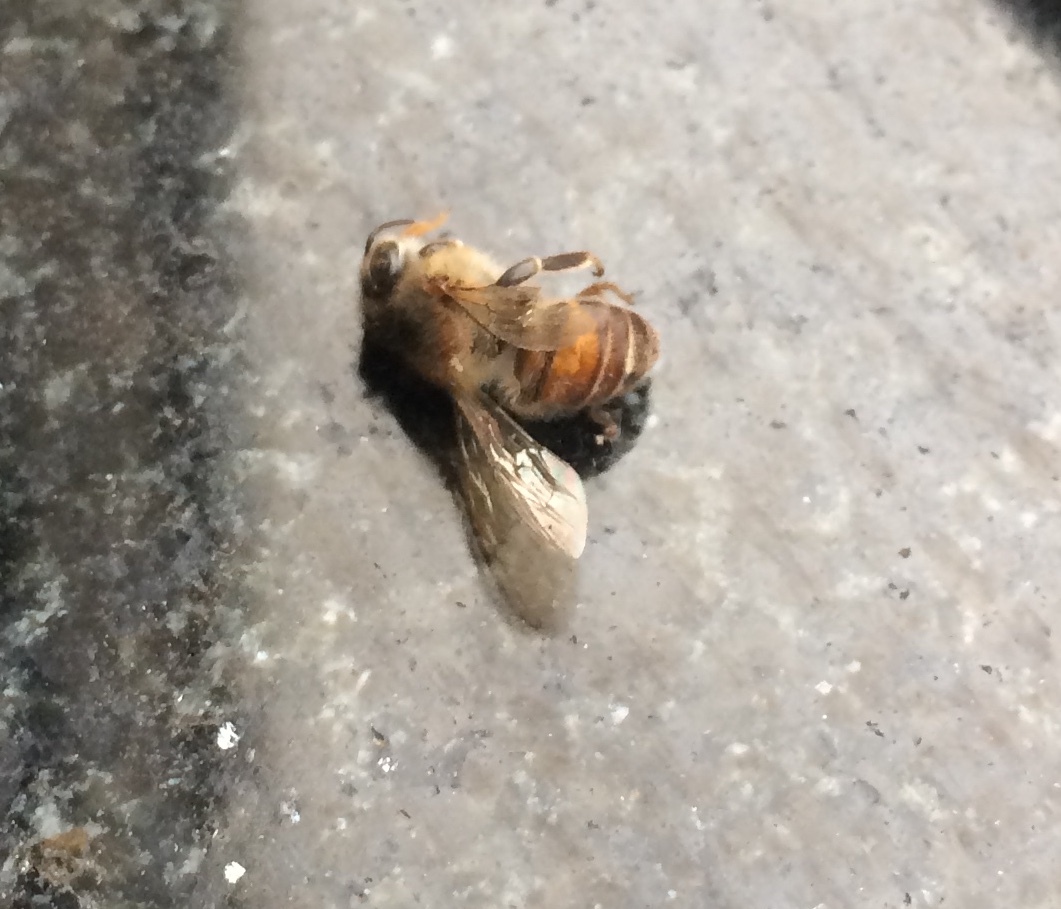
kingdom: Animalia
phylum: Arthropoda
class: Insecta
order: Hymenoptera
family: Apidae
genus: Apis
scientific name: Apis cerana
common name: Honey bee
